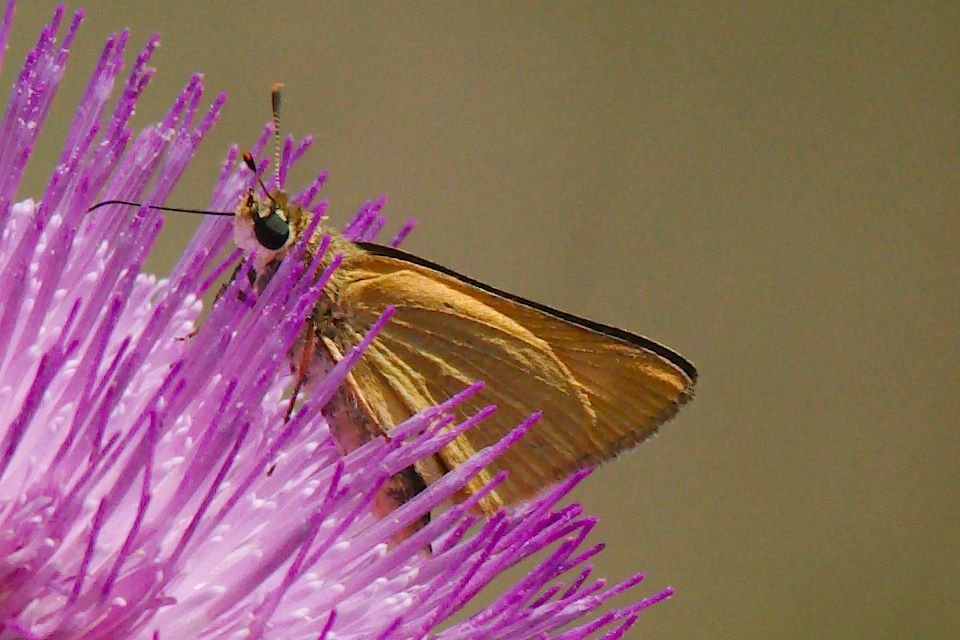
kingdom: Animalia
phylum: Arthropoda
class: Insecta
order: Lepidoptera
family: Hesperiidae
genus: Atrytone
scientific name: Atrytone delaware
